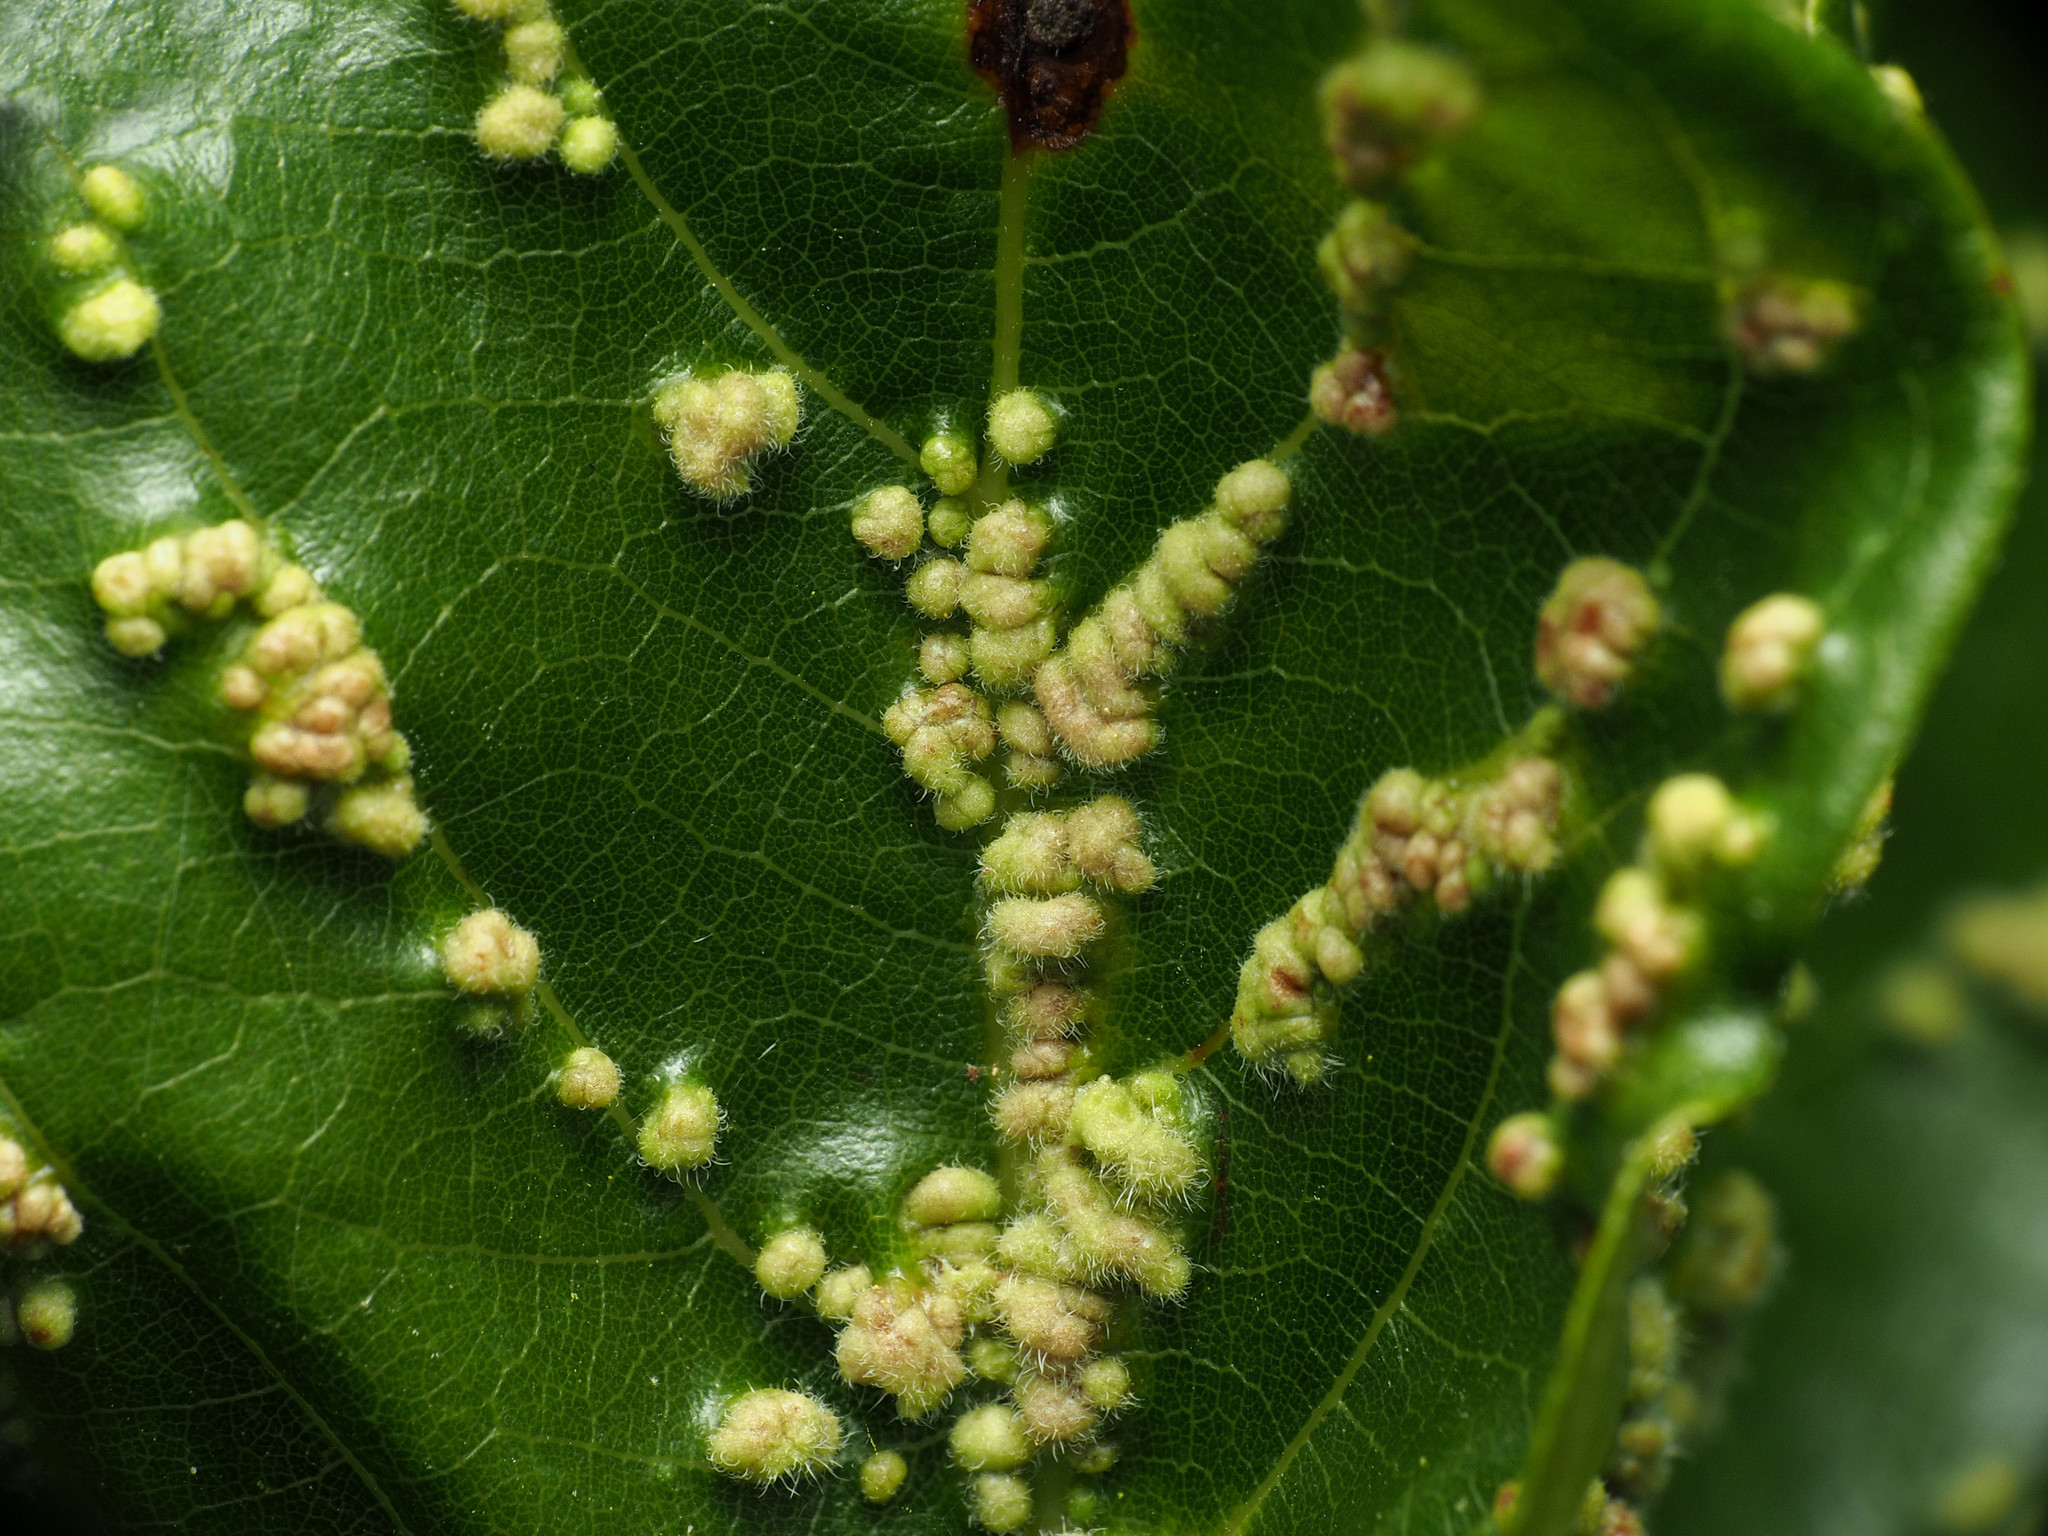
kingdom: Animalia
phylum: Arthropoda
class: Arachnida
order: Trombidiformes
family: Eriophyidae
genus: Aceria
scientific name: Aceria
